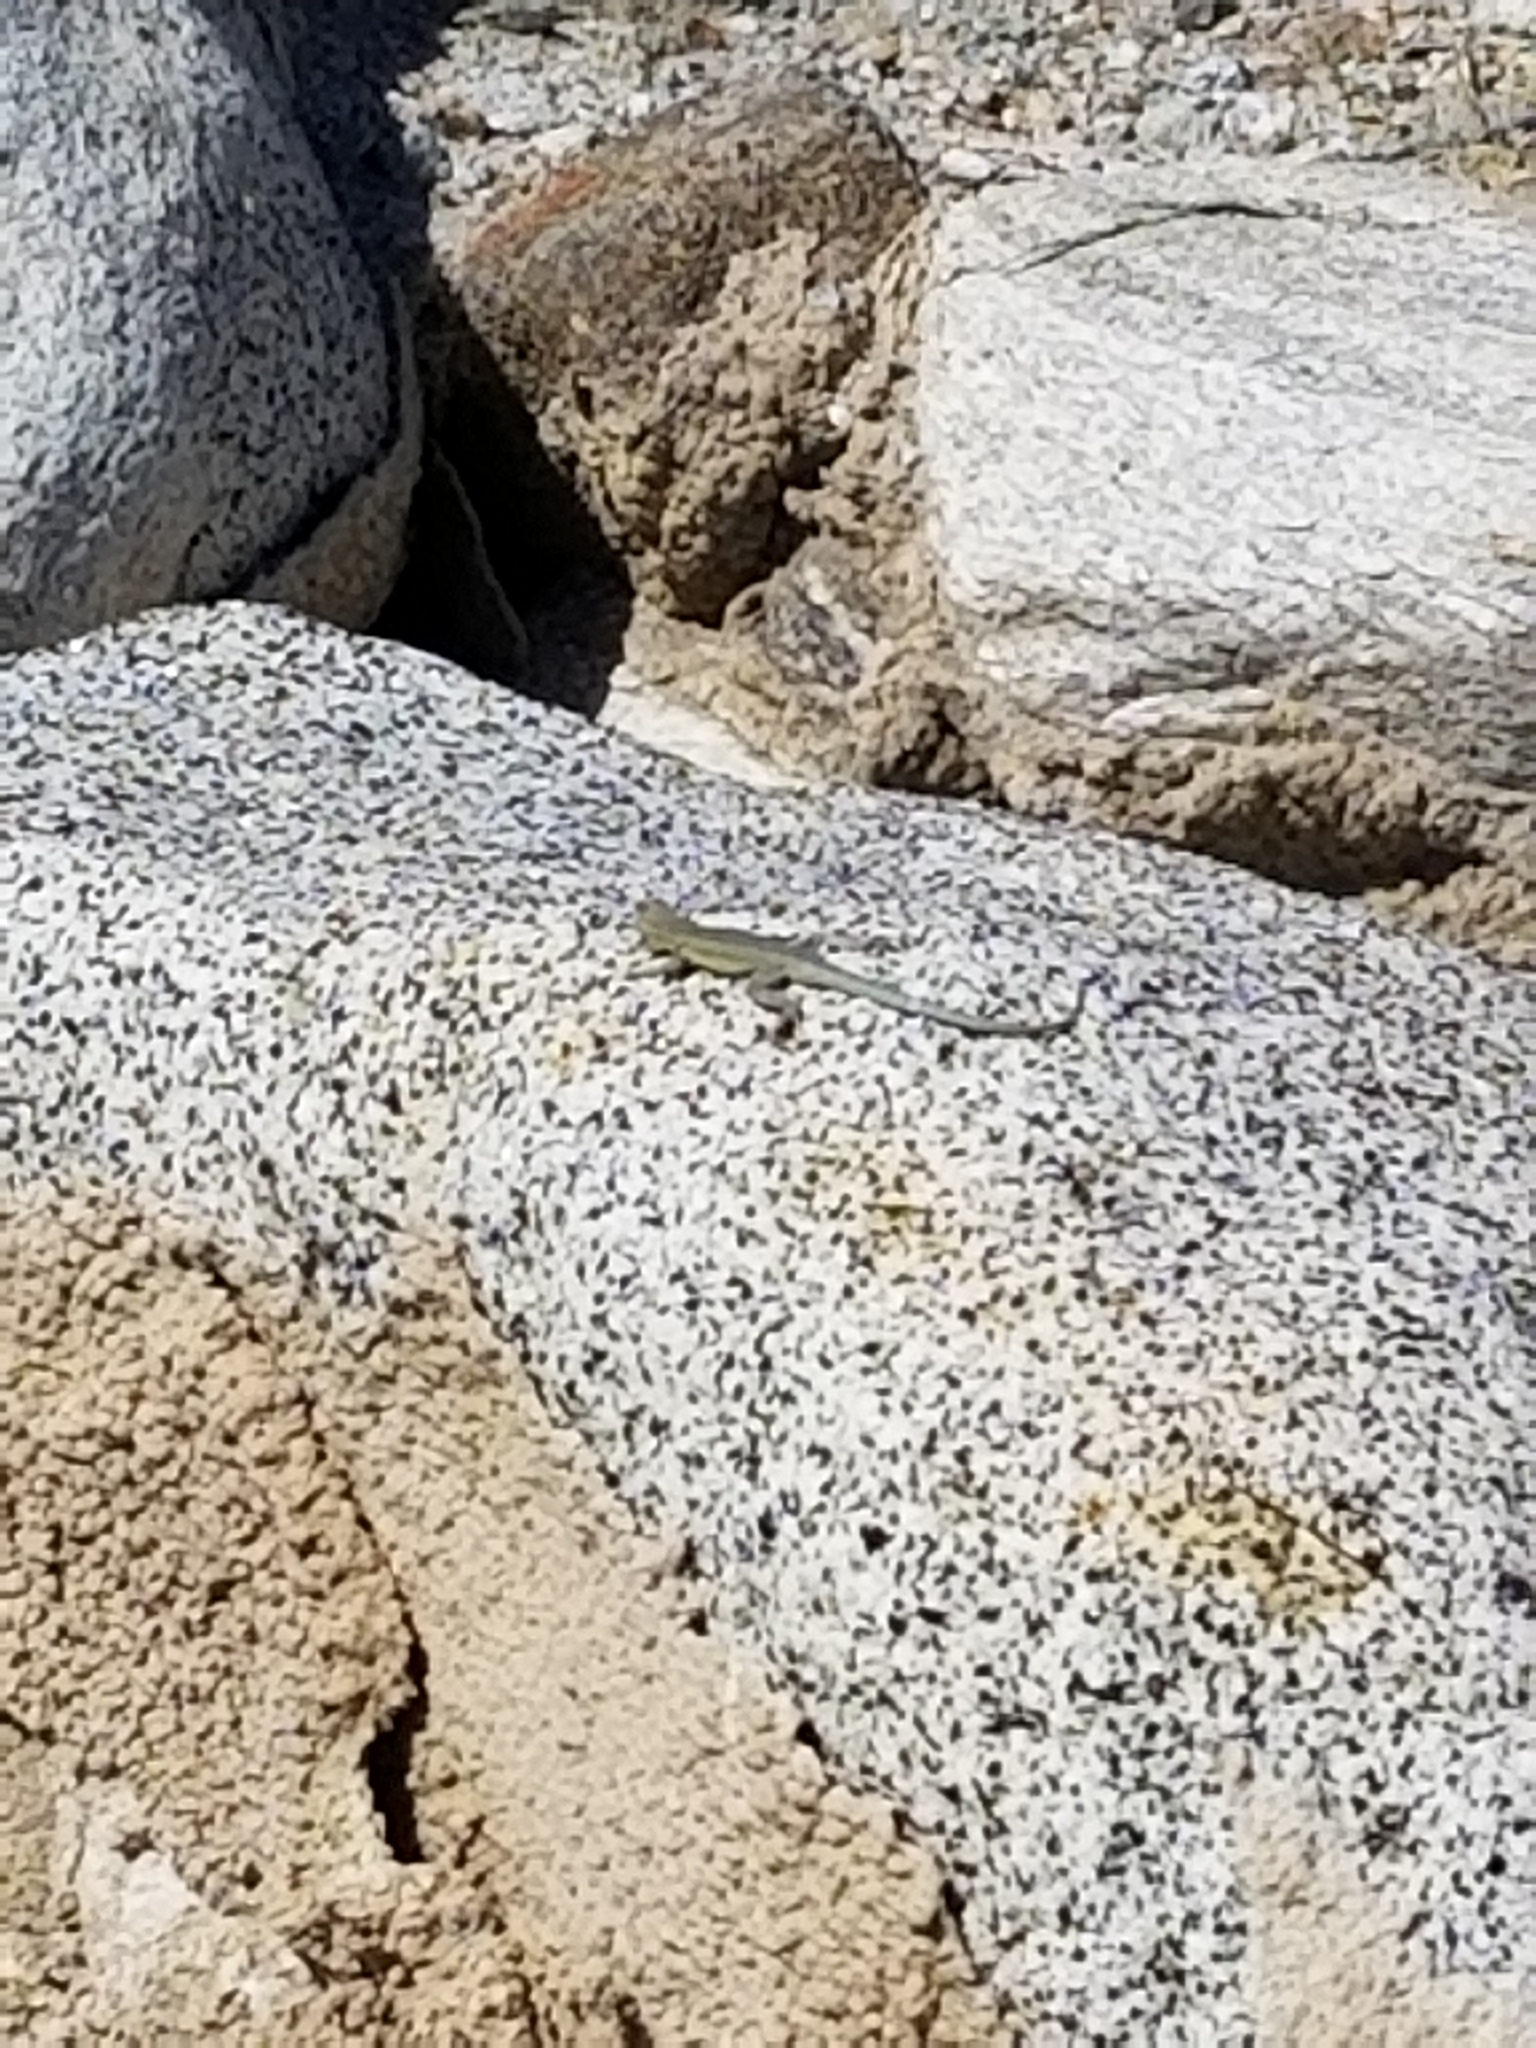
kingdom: Animalia
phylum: Chordata
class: Squamata
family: Phrynosomatidae
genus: Uta
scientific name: Uta stansburiana
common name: Side-blotched lizard
